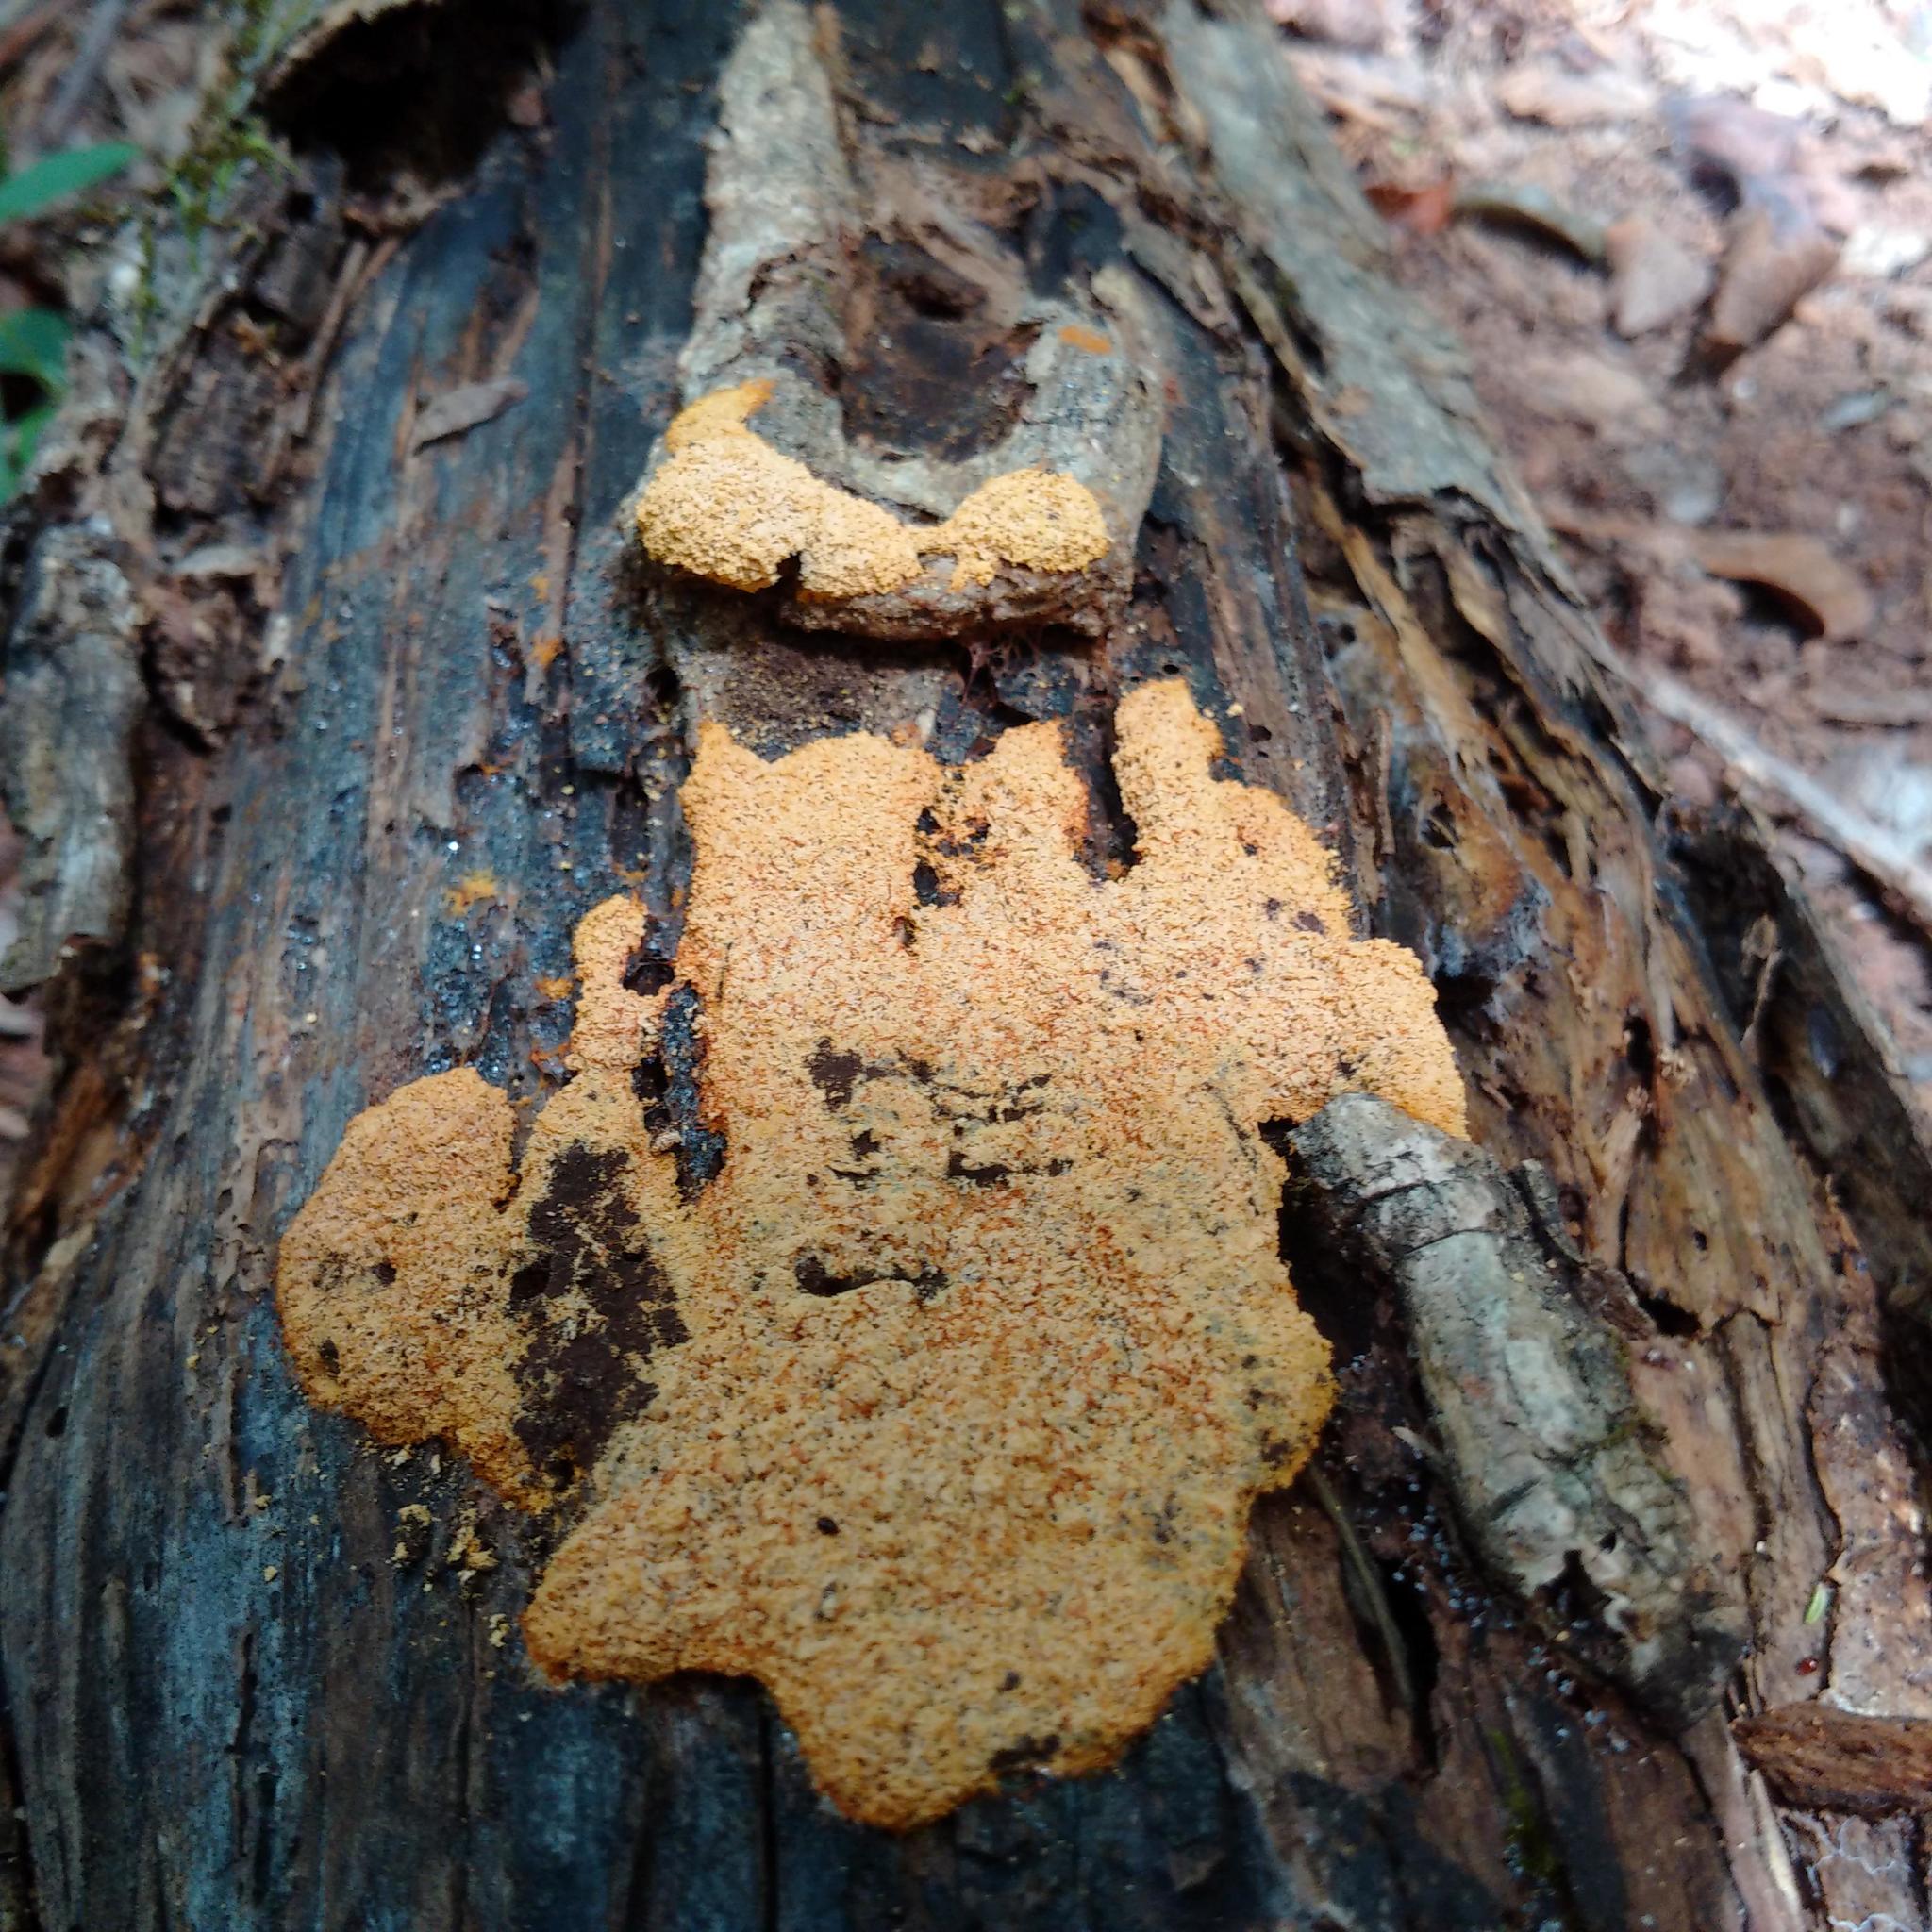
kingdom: Protozoa
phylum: Mycetozoa
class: Myxomycetes
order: Physarales
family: Physaraceae
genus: Fuligo
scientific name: Fuligo septica
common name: Dog vomit slime mold
